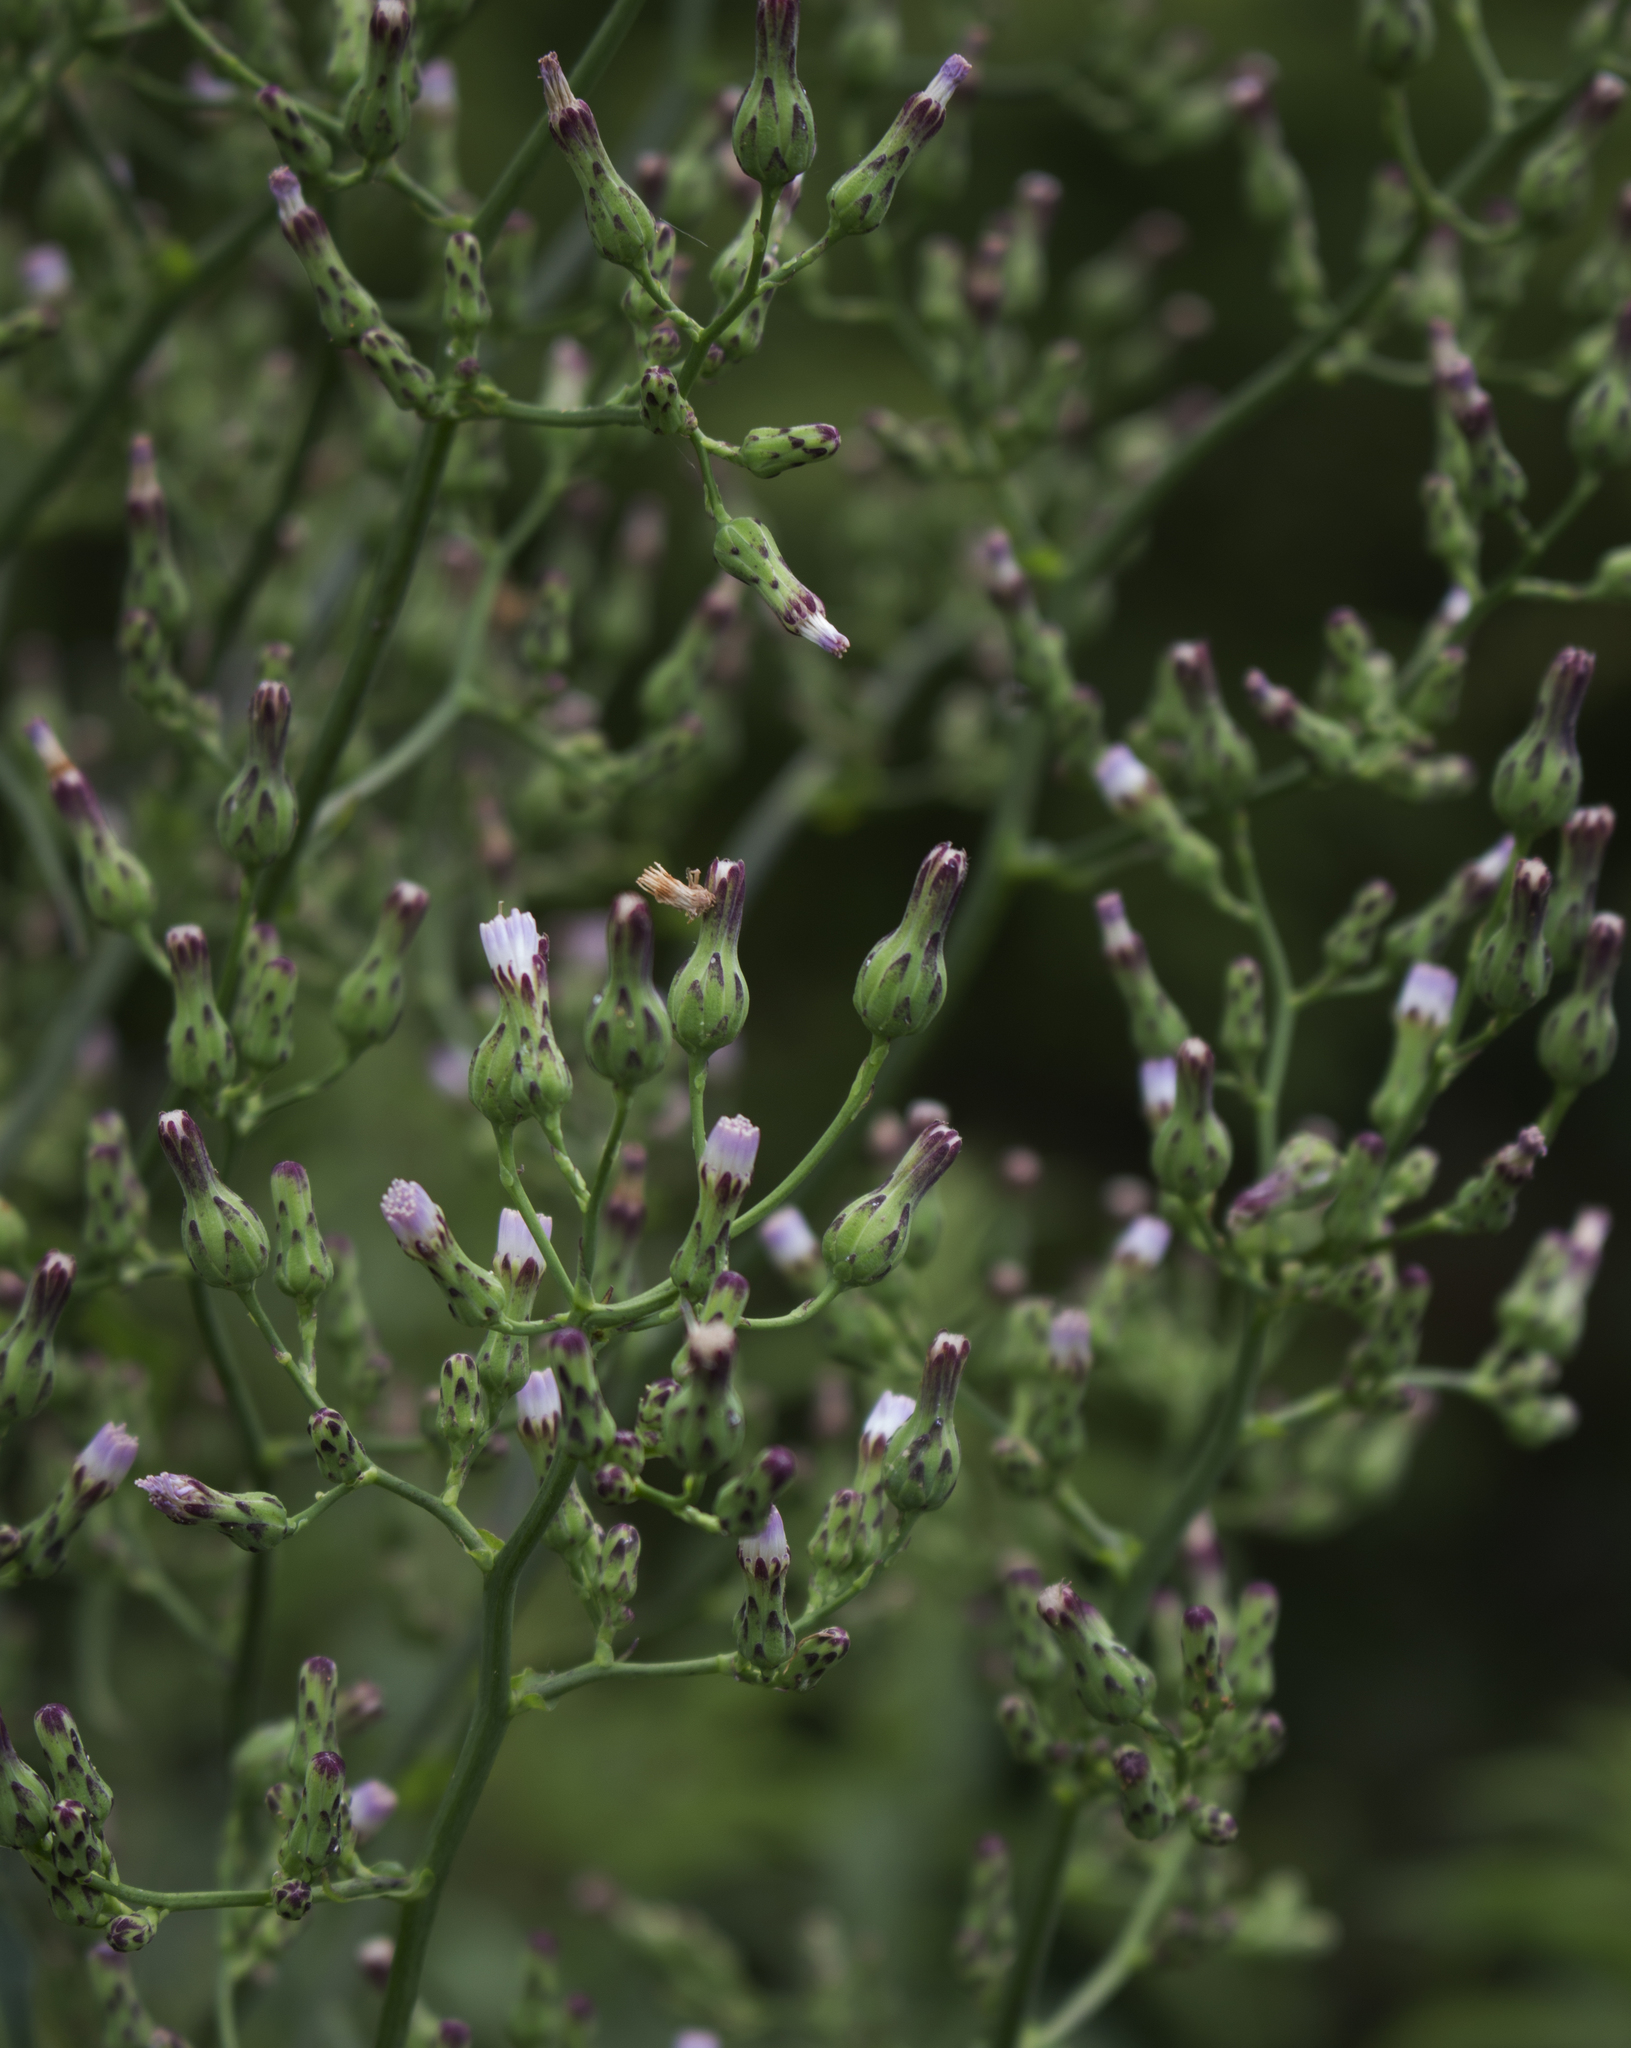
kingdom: Plantae
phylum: Tracheophyta
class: Magnoliopsida
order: Asterales
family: Asteraceae
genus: Lactuca
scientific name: Lactuca biennis
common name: Blue wood lettuce
